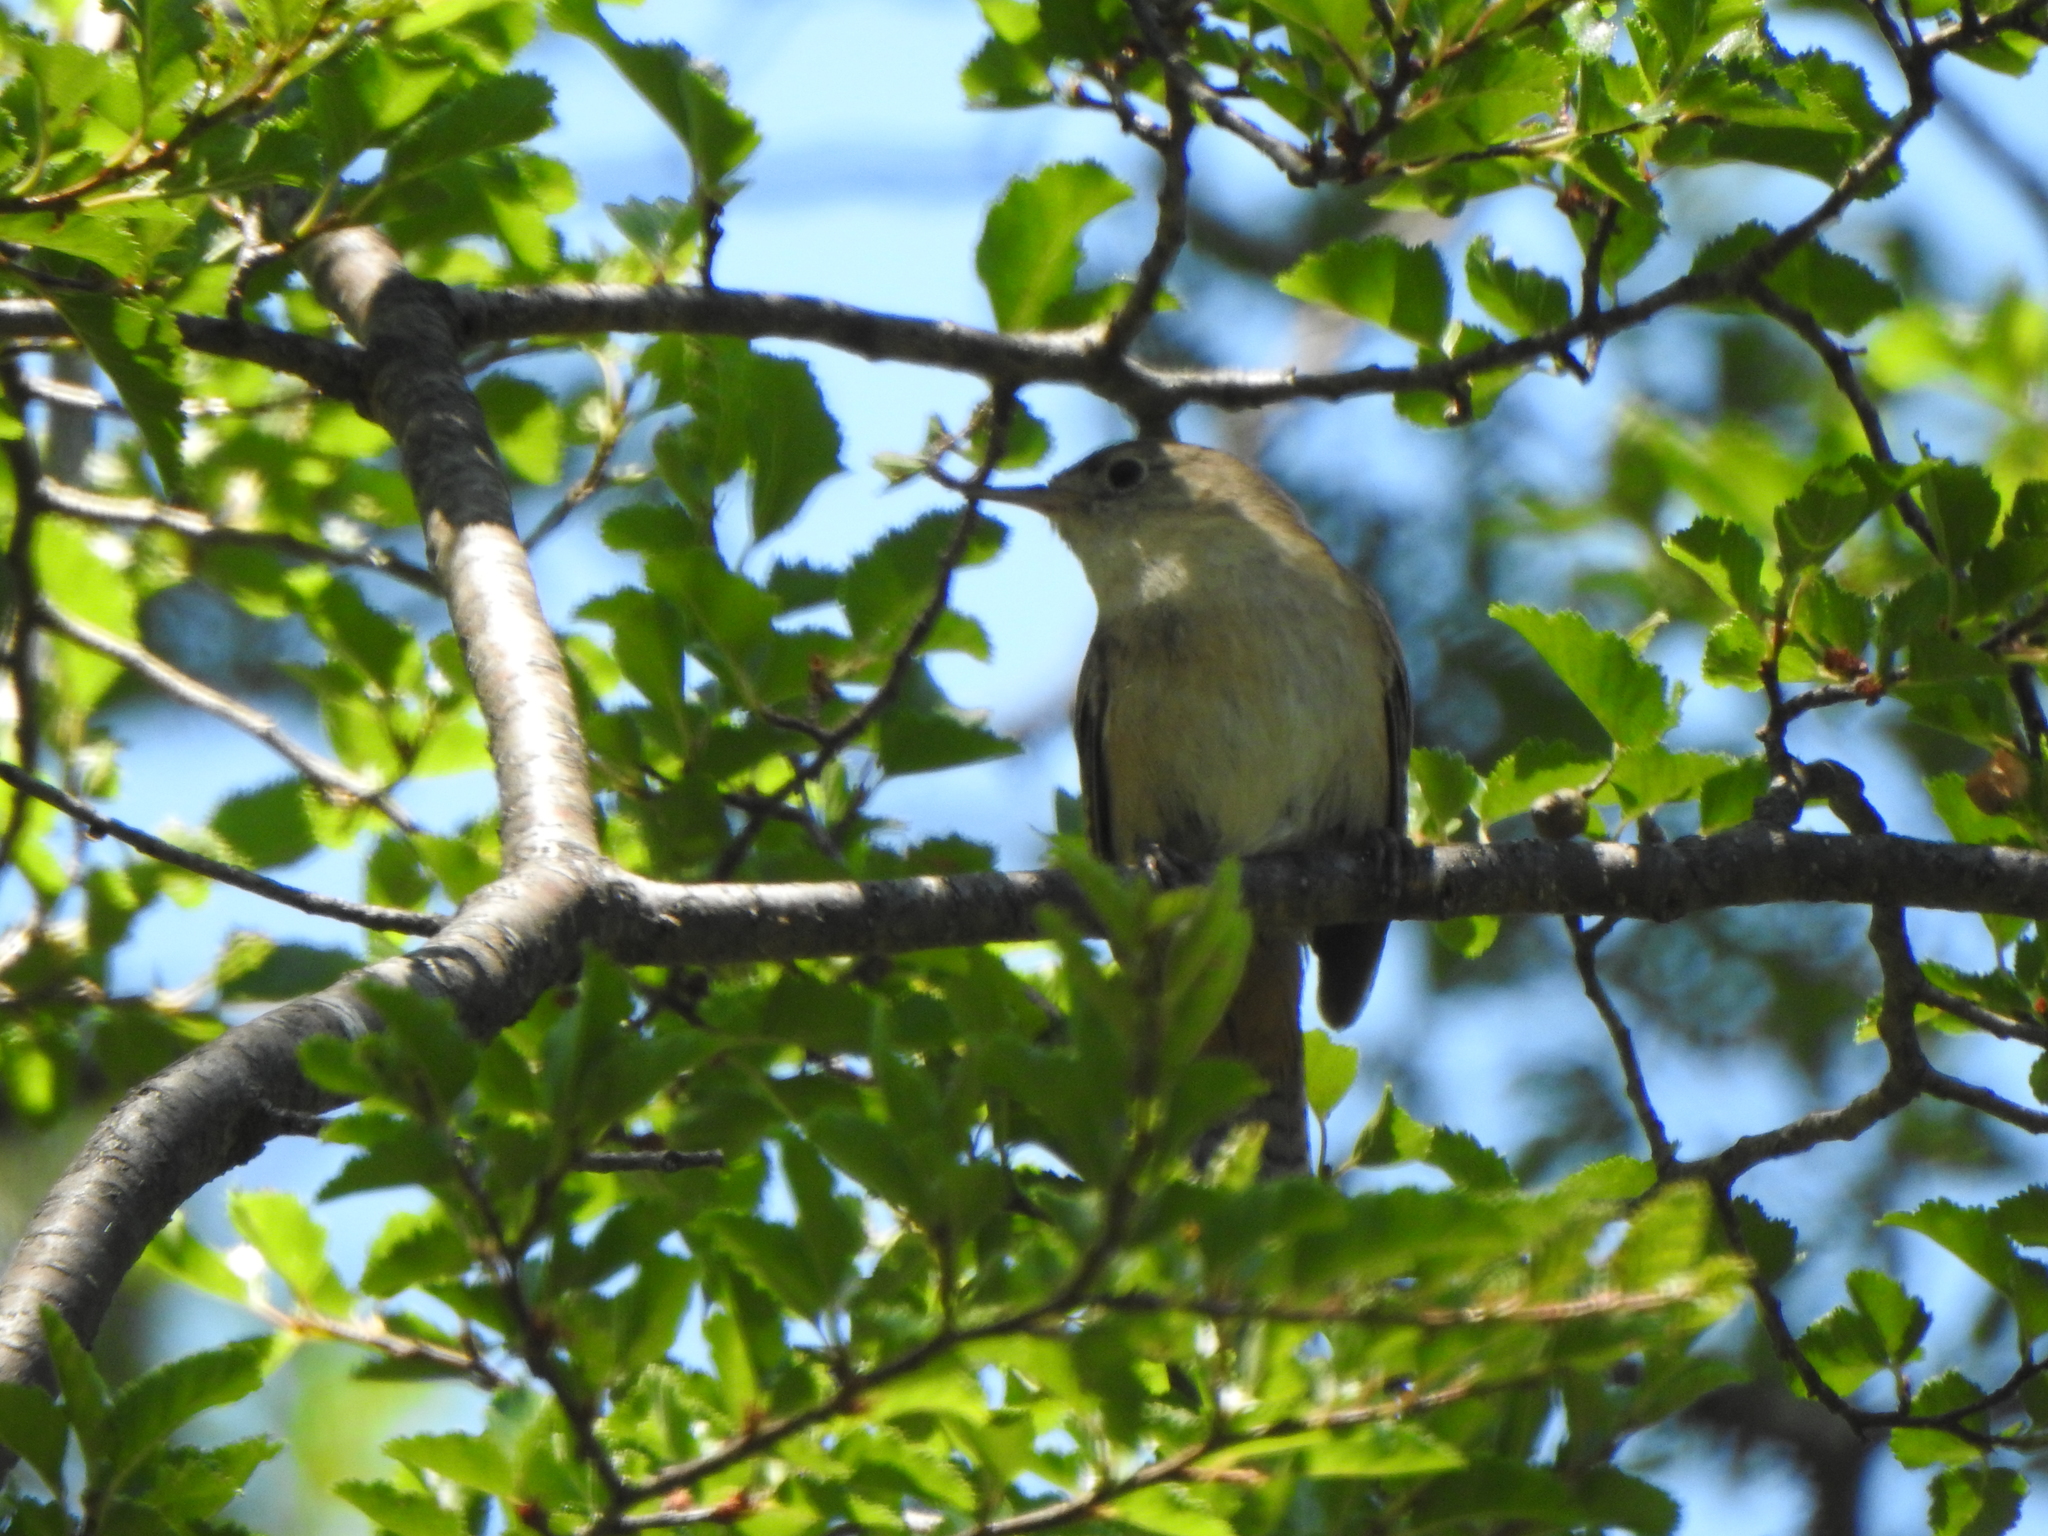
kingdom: Animalia
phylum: Chordata
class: Aves
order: Passeriformes
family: Tyrannidae
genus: Elaenia
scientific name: Elaenia albiceps
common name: White-crested elaenia
